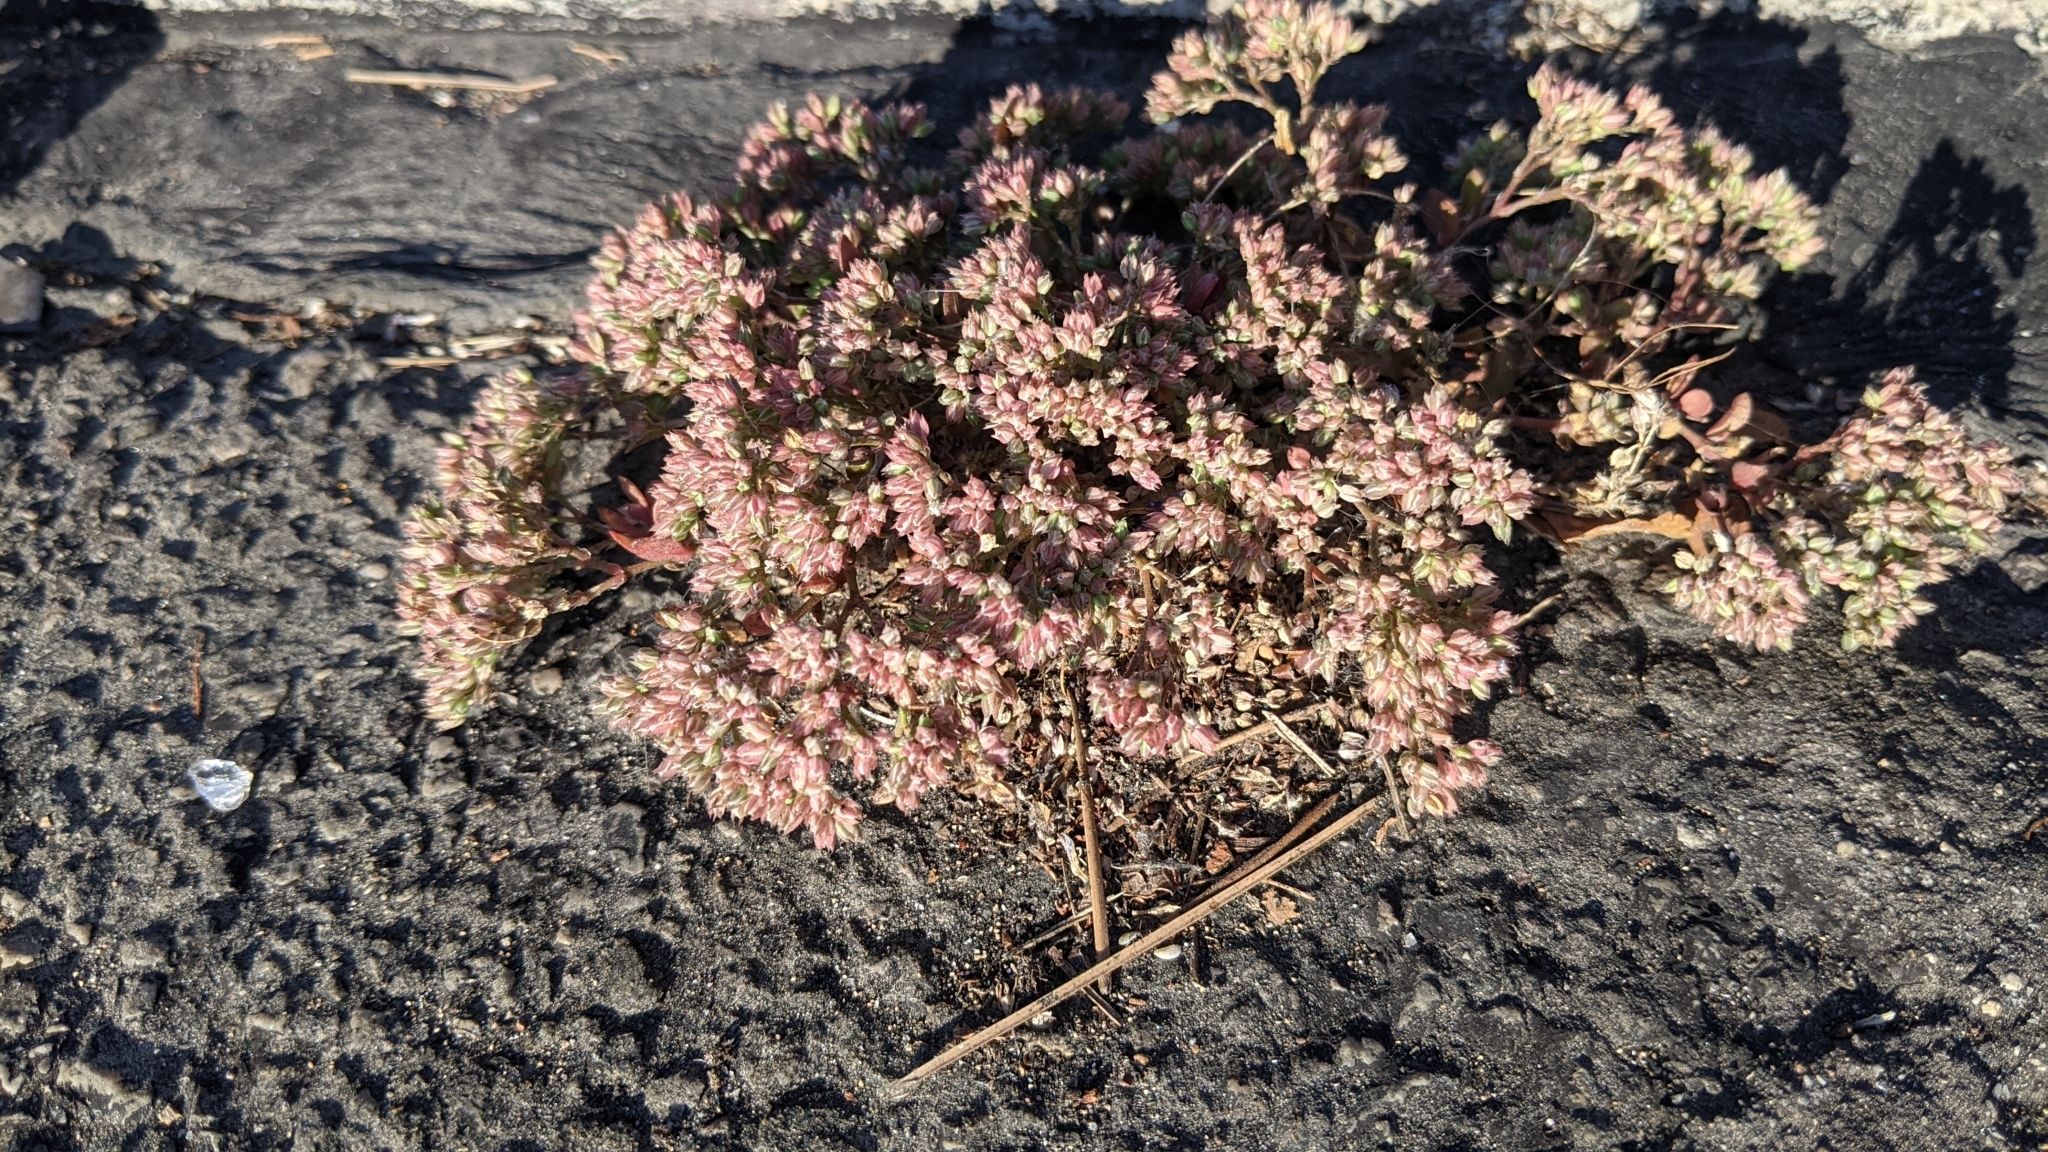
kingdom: Plantae
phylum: Tracheophyta
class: Magnoliopsida
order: Caryophyllales
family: Caryophyllaceae
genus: Polycarpon
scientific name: Polycarpon tetraphyllum
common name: Four-leaved all-seed
